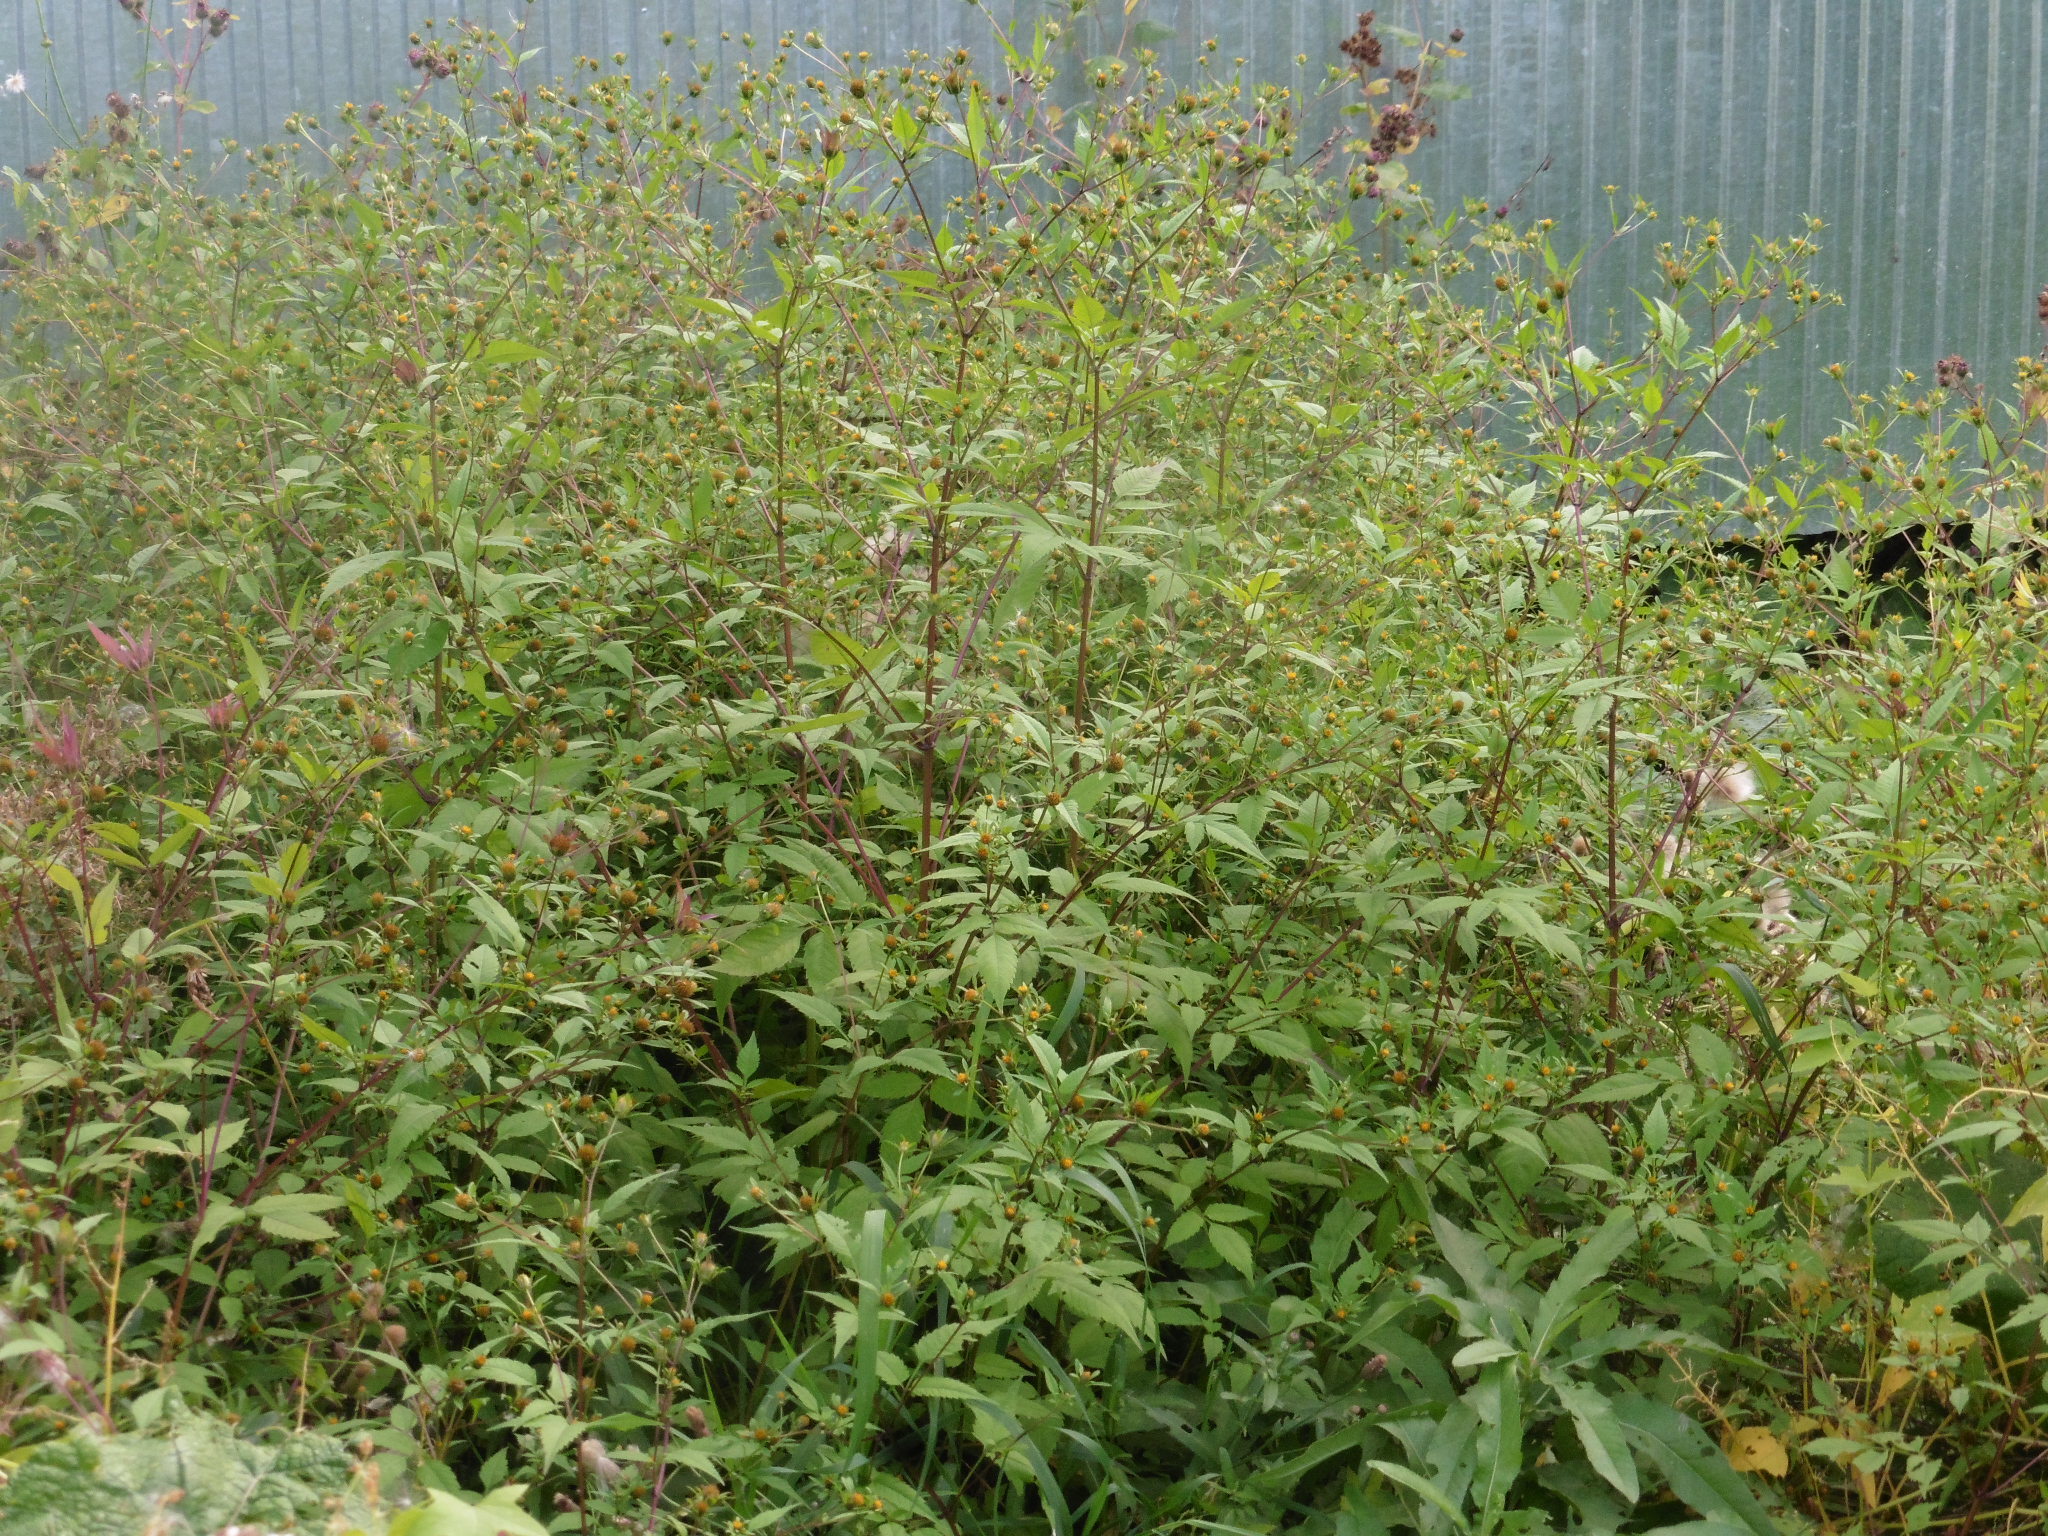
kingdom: Plantae
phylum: Tracheophyta
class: Magnoliopsida
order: Asterales
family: Asteraceae
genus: Bidens
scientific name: Bidens frondosa
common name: Beggarticks
